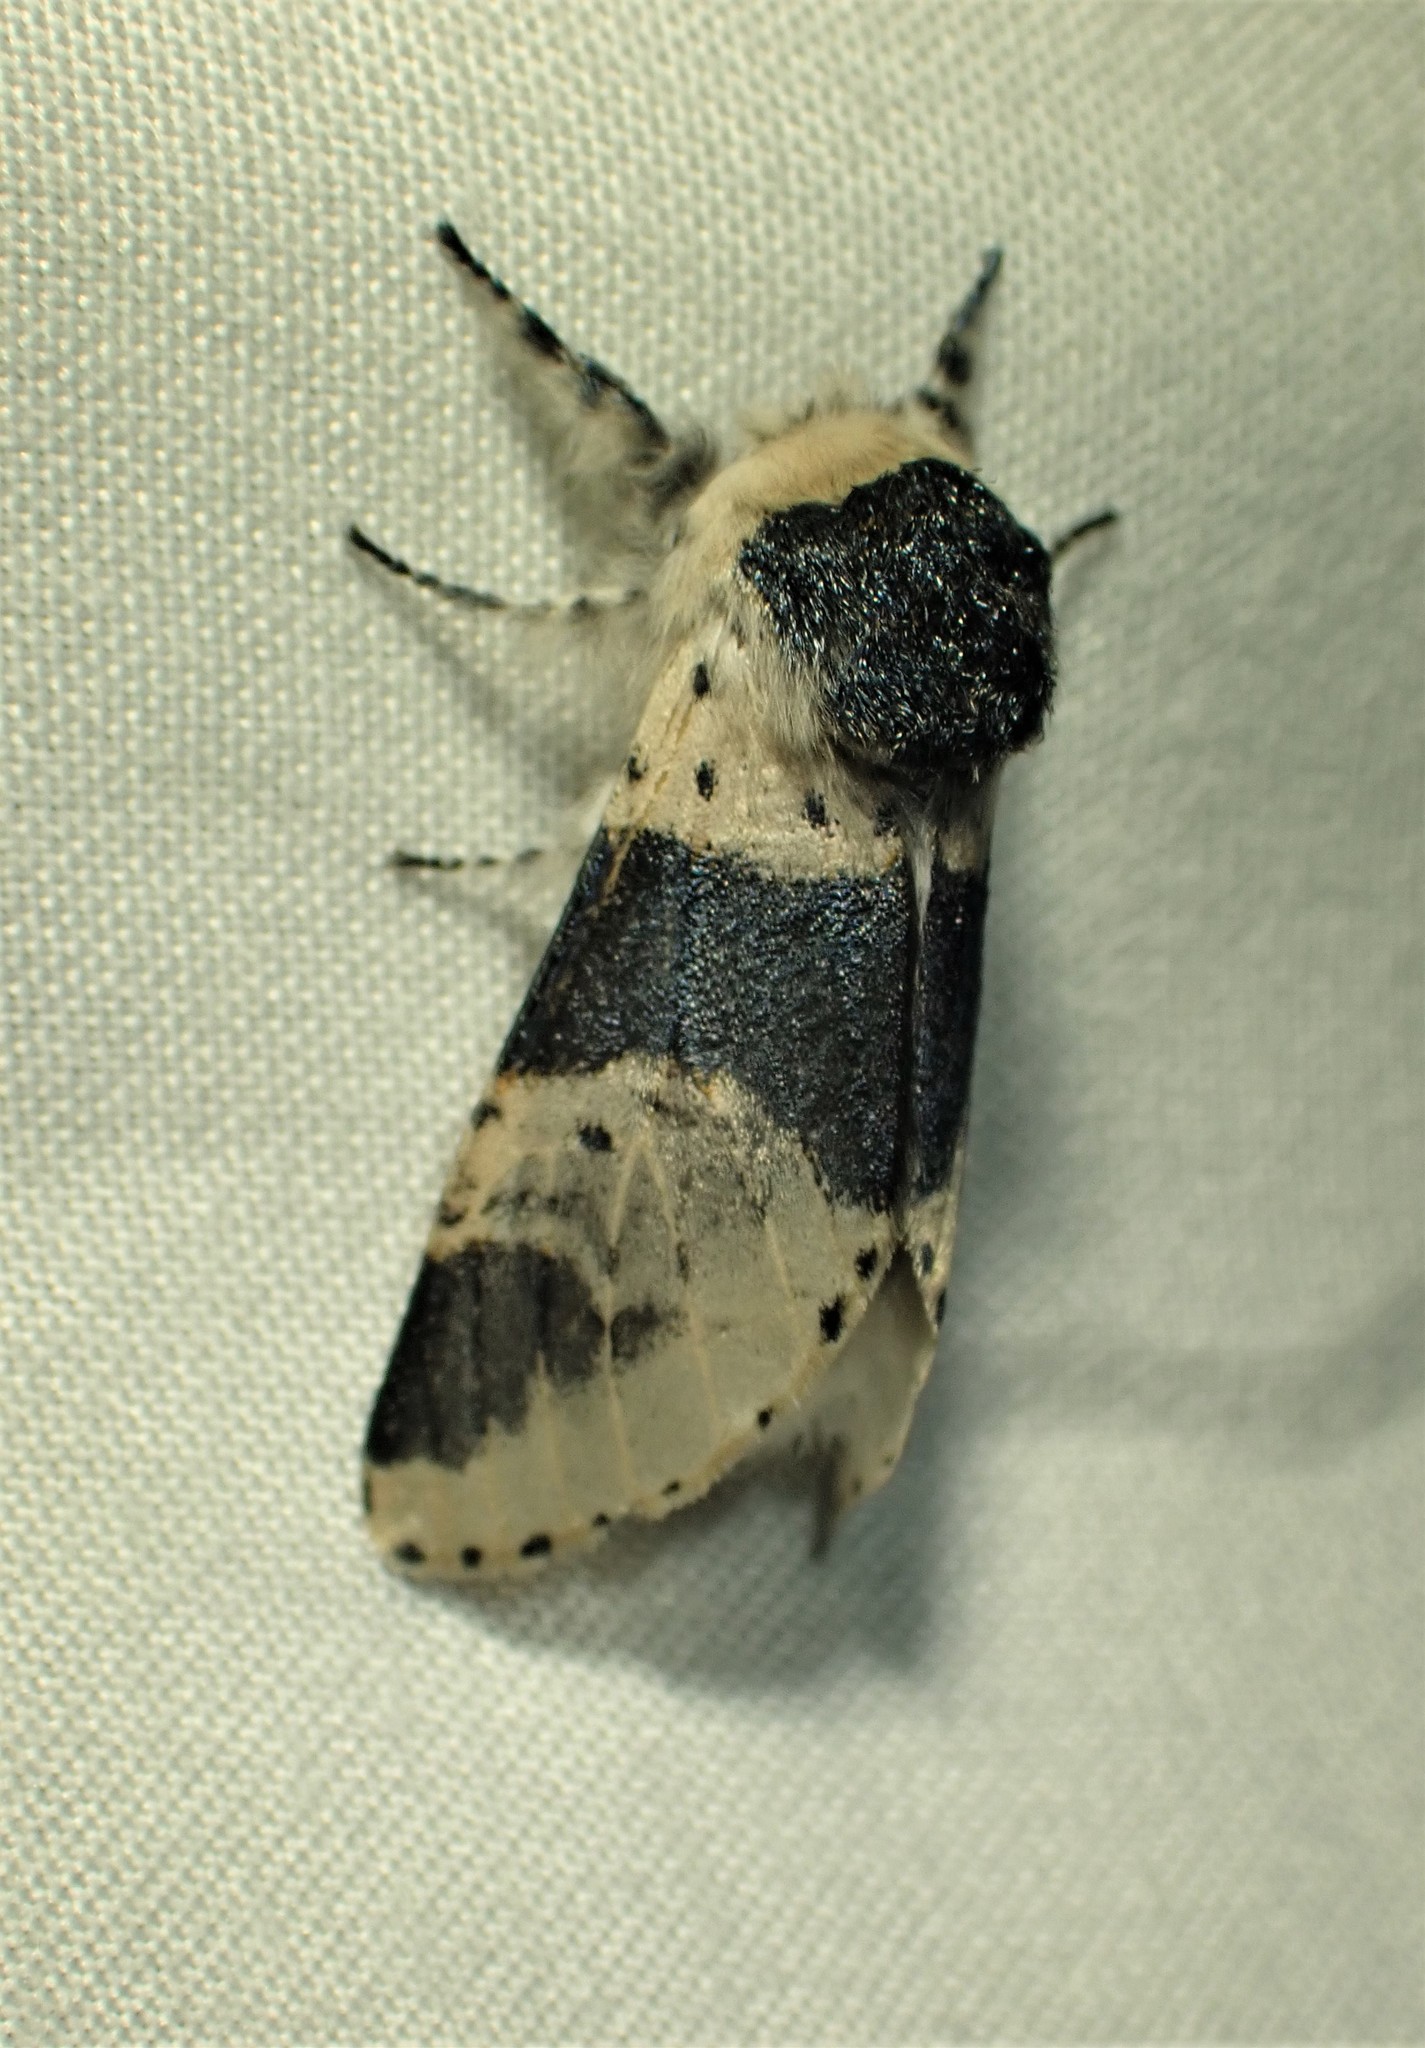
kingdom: Animalia
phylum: Arthropoda
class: Insecta
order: Lepidoptera
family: Notodontidae
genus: Furcula
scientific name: Furcula modesta
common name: Modest furcula moth
